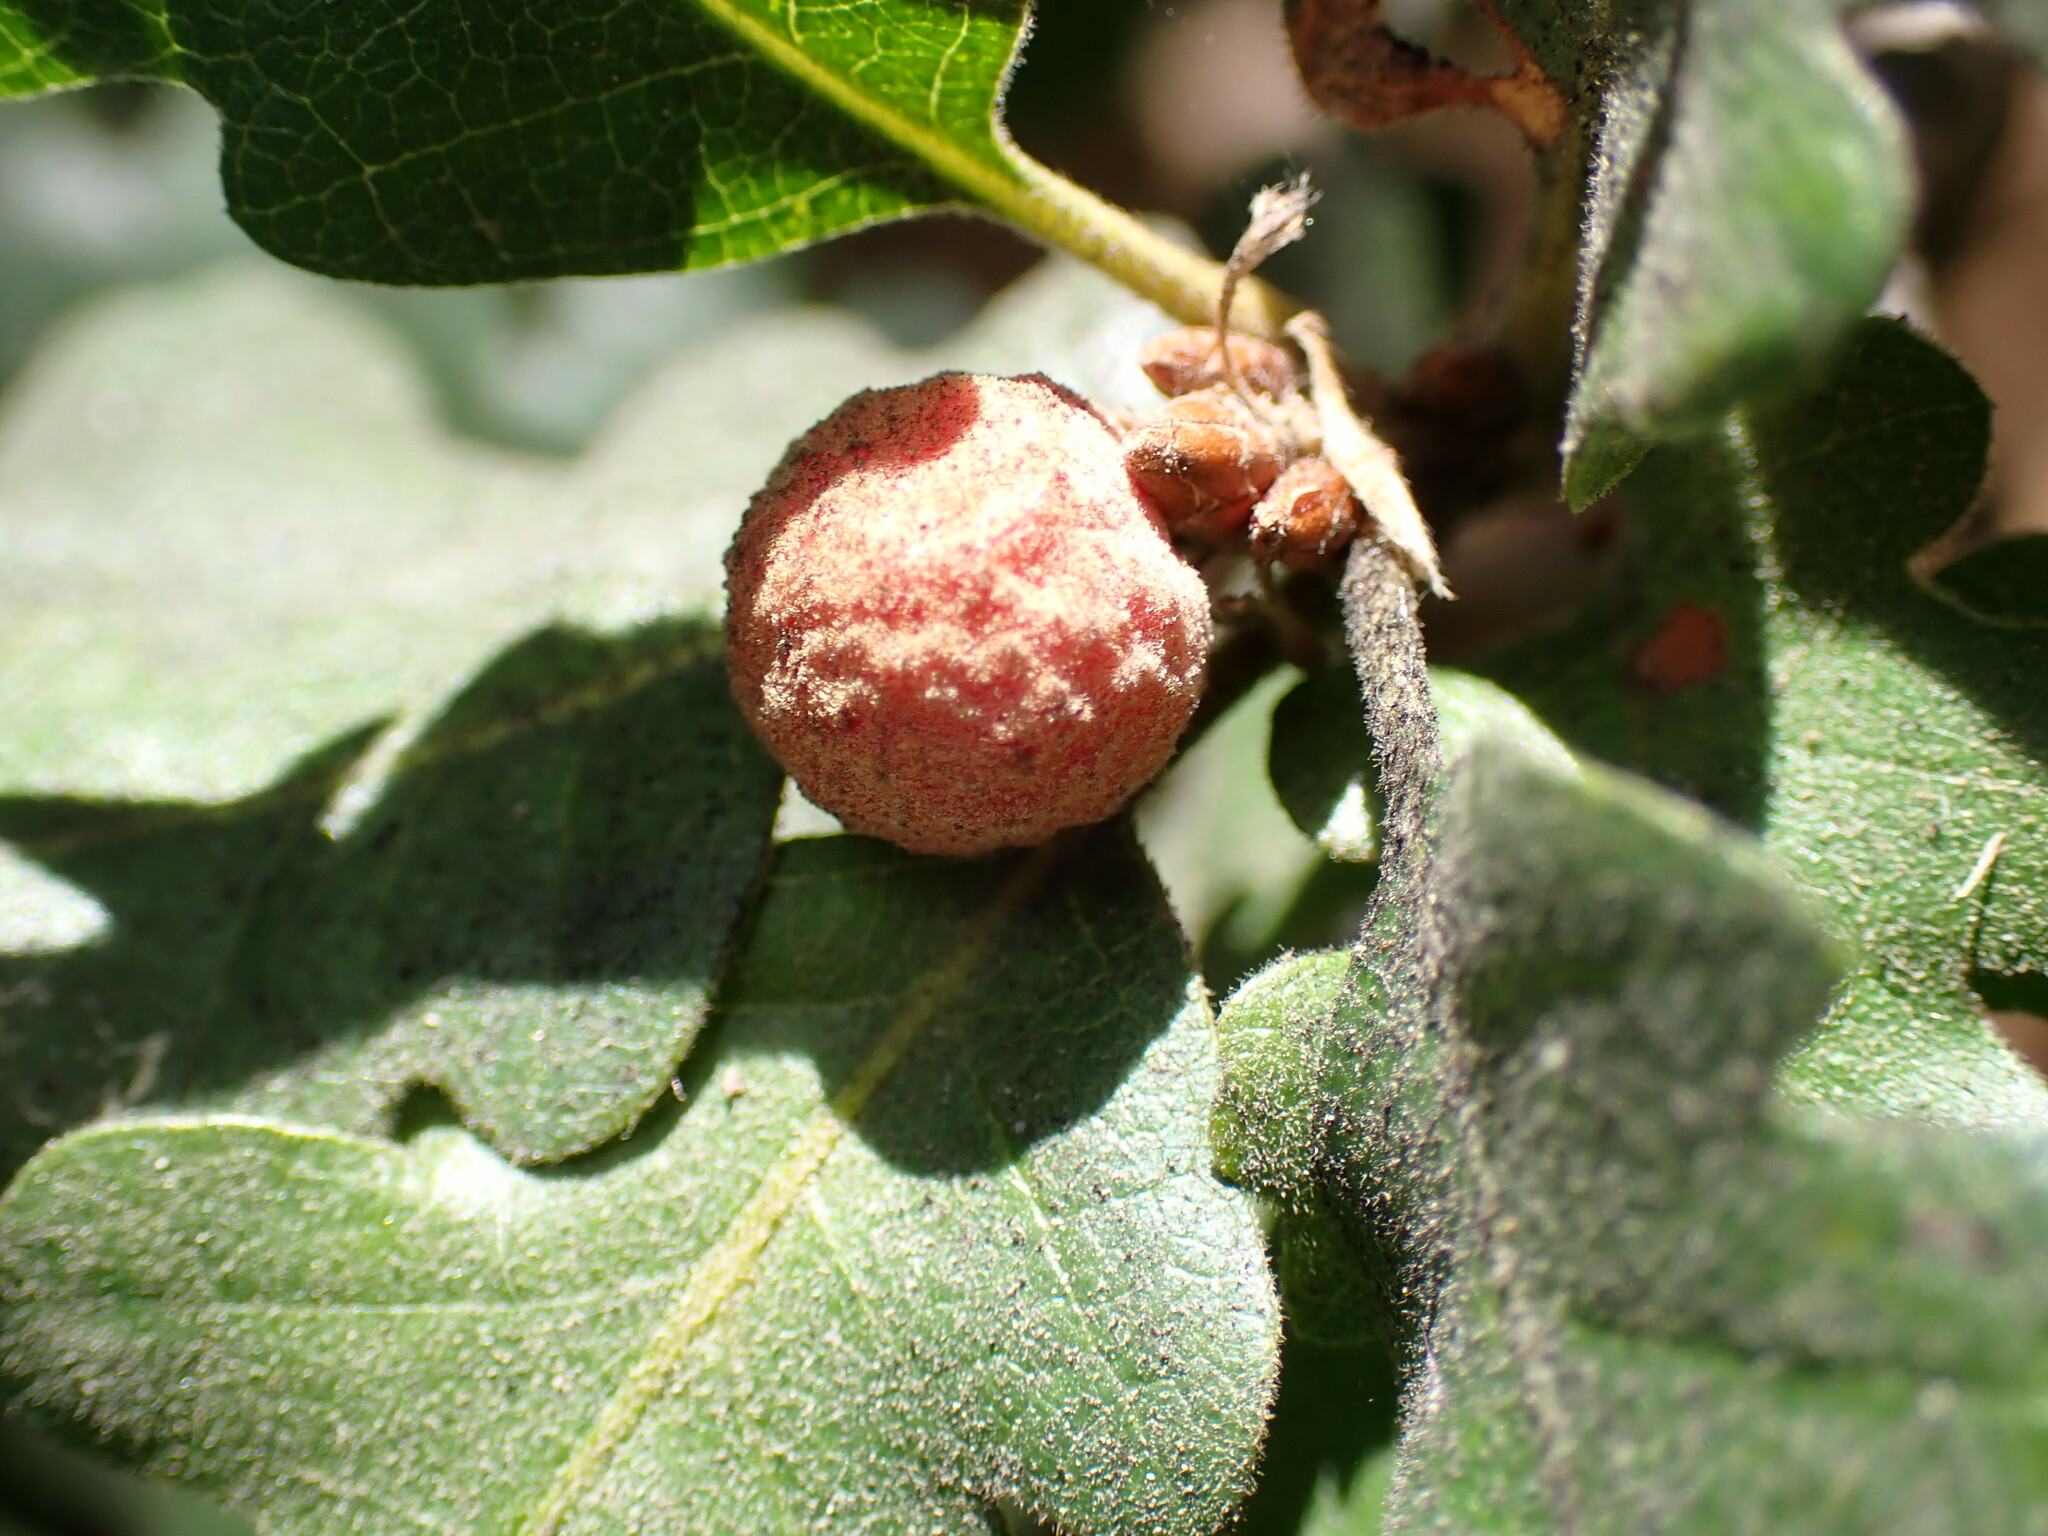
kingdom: Animalia
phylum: Arthropoda
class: Insecta
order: Hymenoptera
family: Cynipidae
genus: Cynips
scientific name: Cynips conspicua
